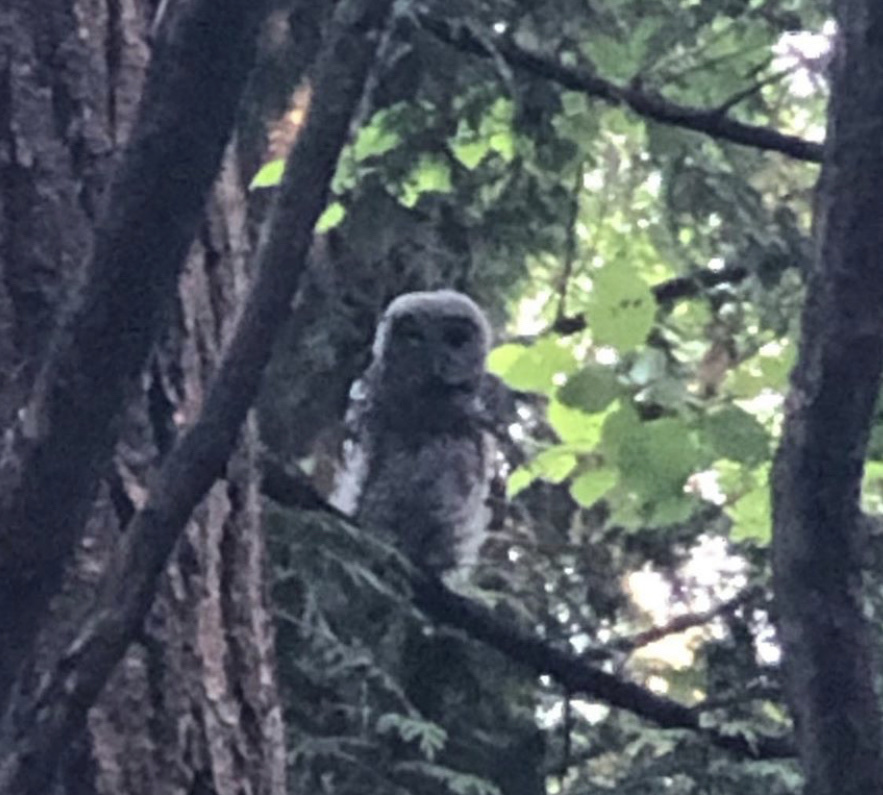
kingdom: Animalia
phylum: Chordata
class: Aves
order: Strigiformes
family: Strigidae
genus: Strix
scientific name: Strix varia
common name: Barred owl
